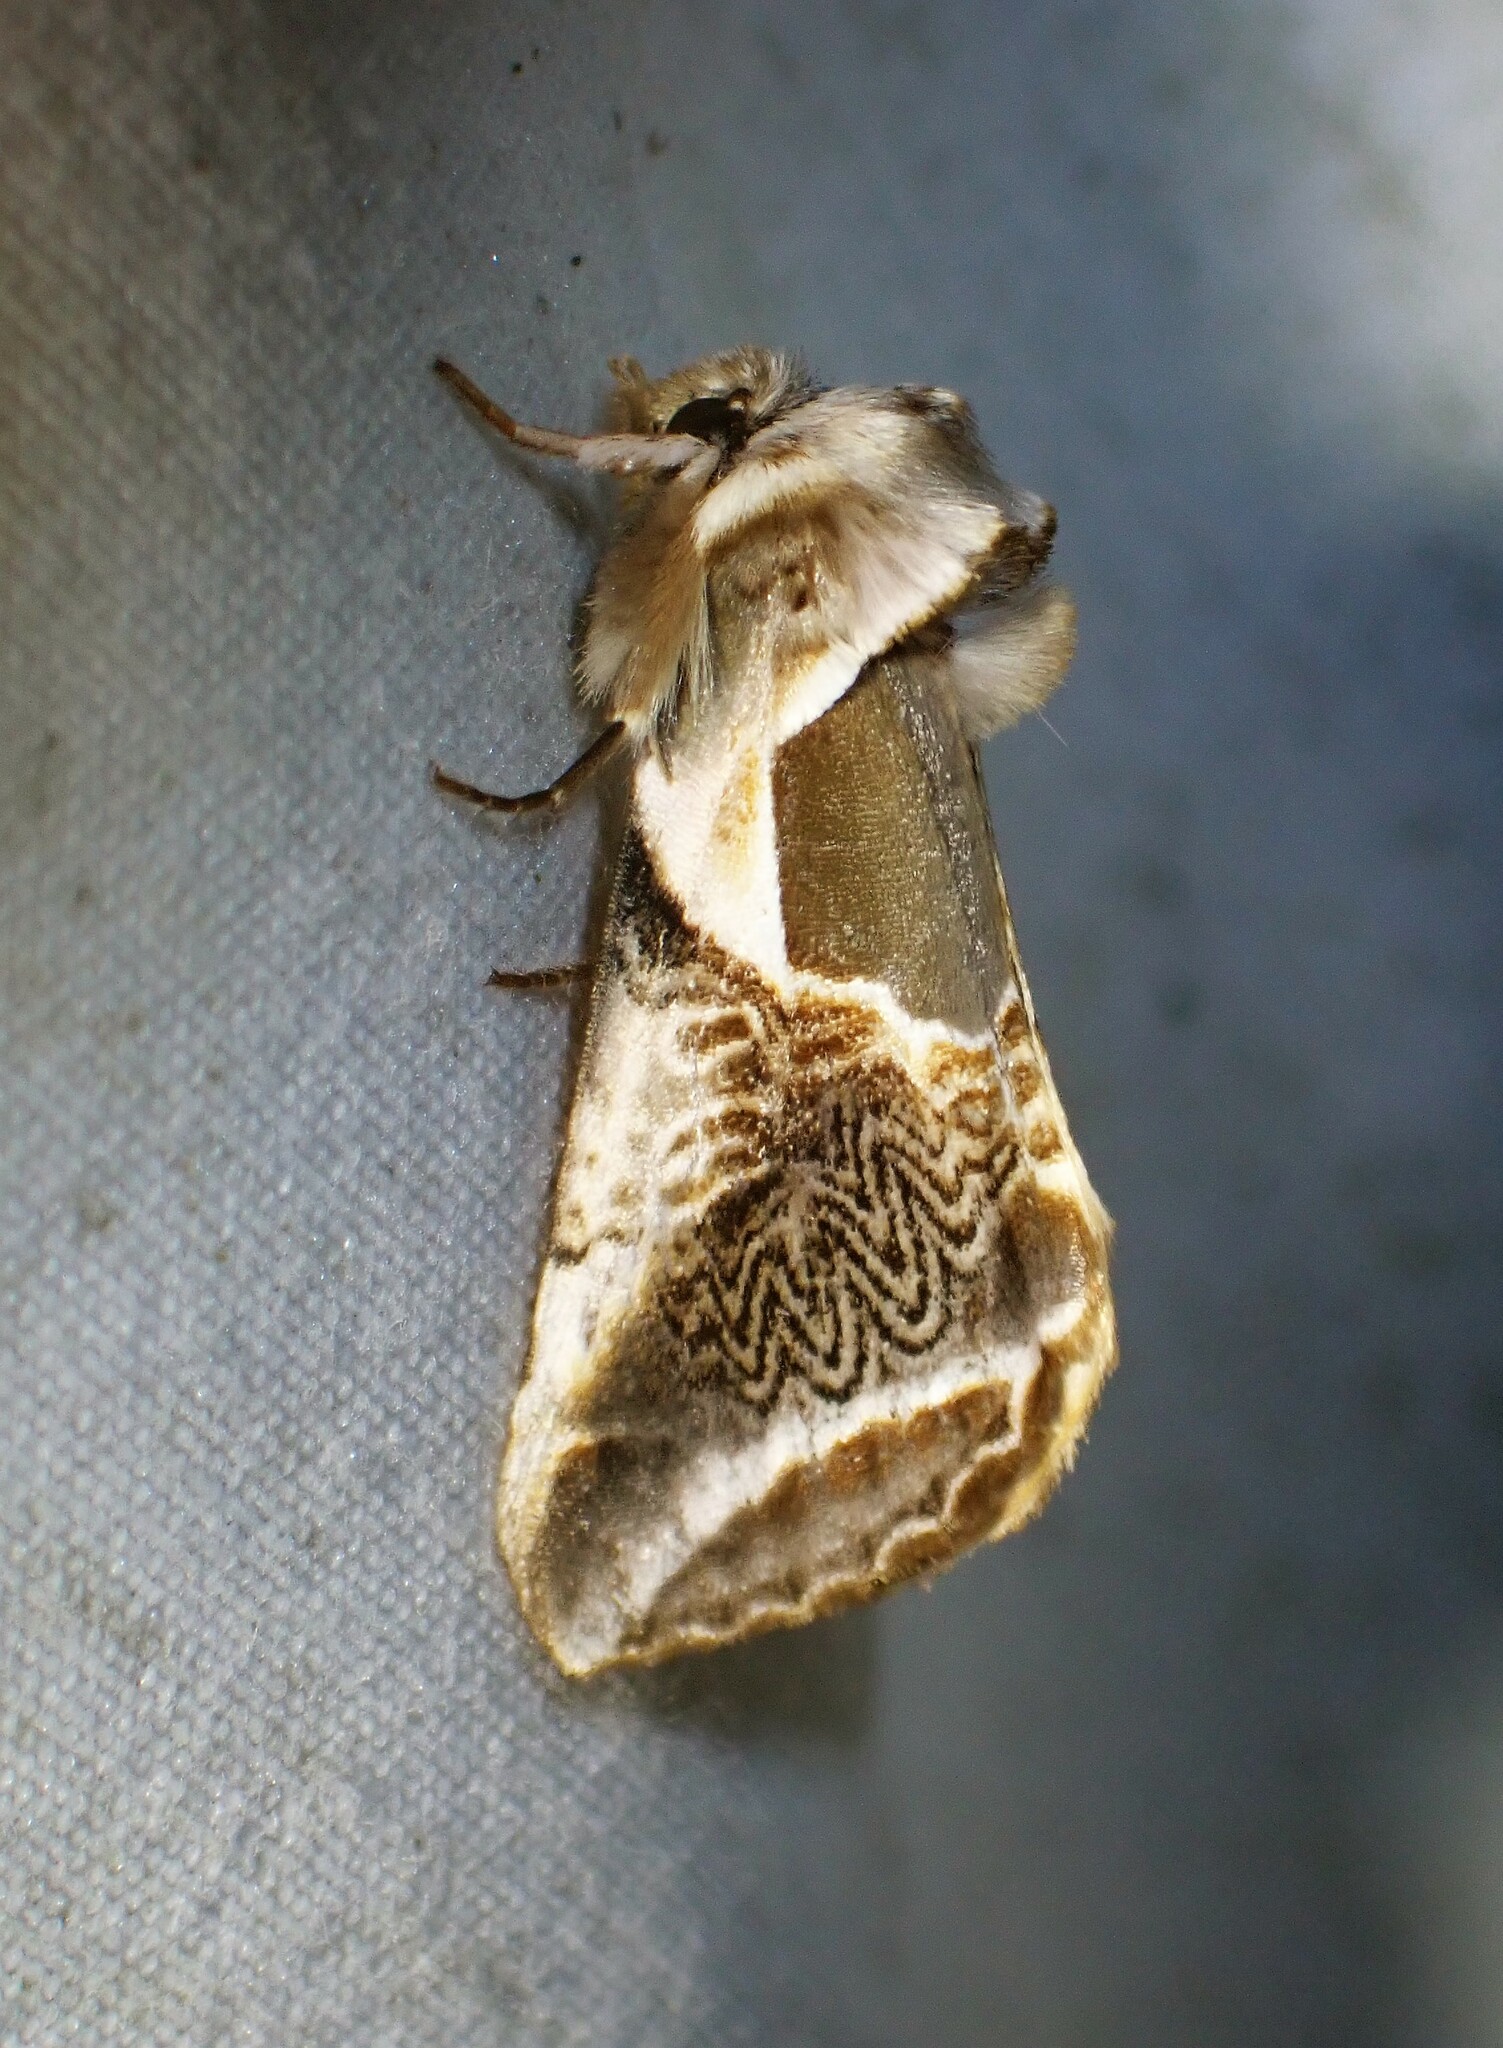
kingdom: Animalia
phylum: Arthropoda
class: Insecta
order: Lepidoptera
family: Drepanidae
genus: Habrosyne
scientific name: Habrosyne scripta
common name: Lettered habrosyne moth
